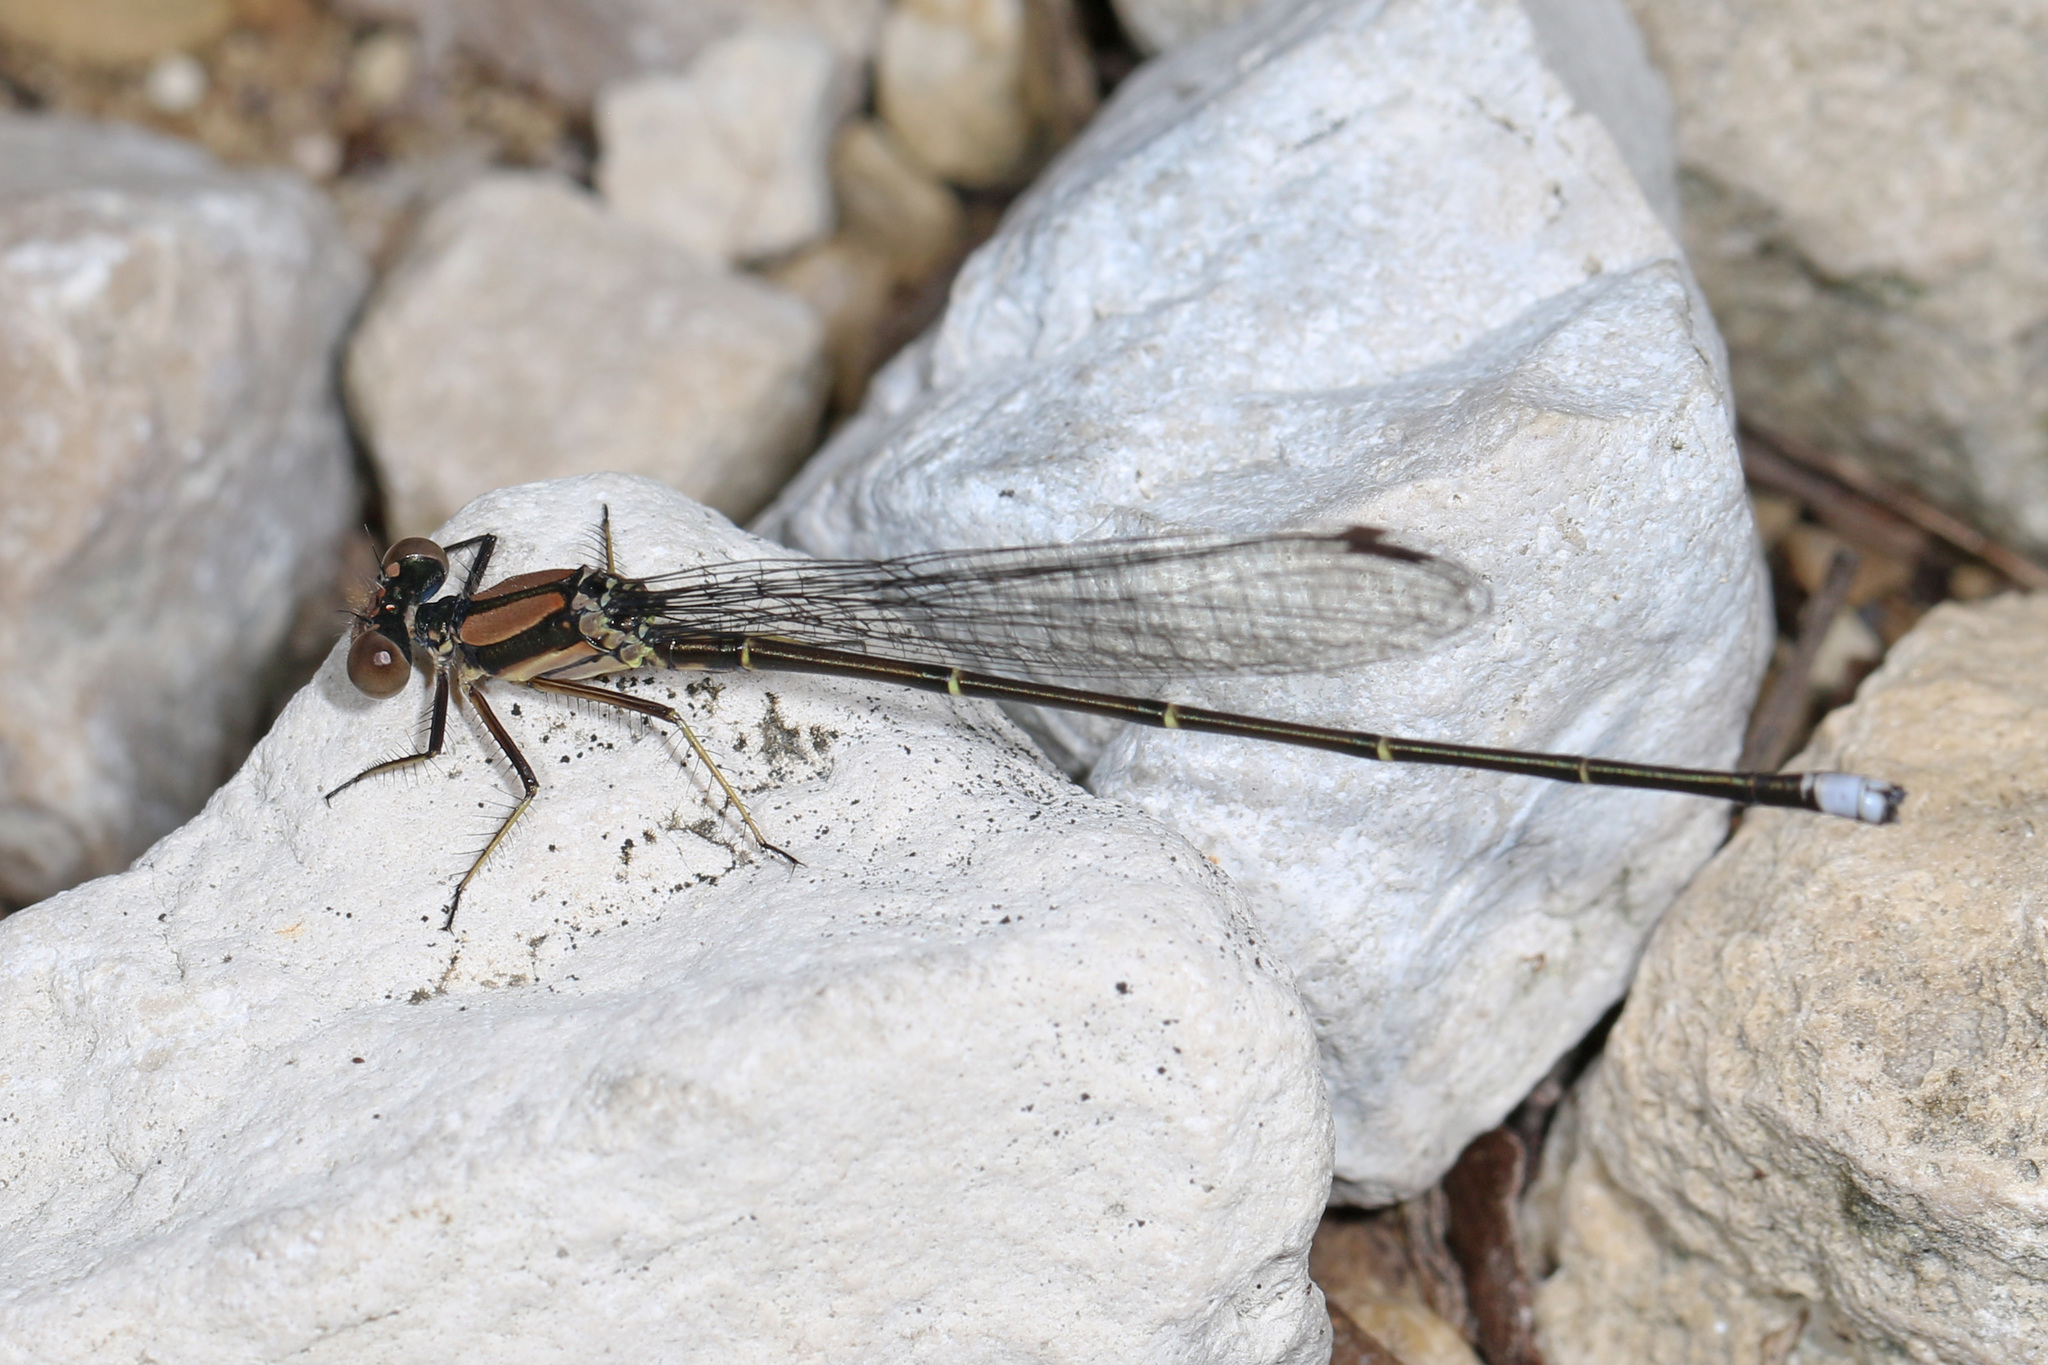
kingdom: Animalia
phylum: Arthropoda
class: Insecta
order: Odonata
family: Coenagrionidae
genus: Argia
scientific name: Argia tibialis
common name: Blue-tipped dancer
